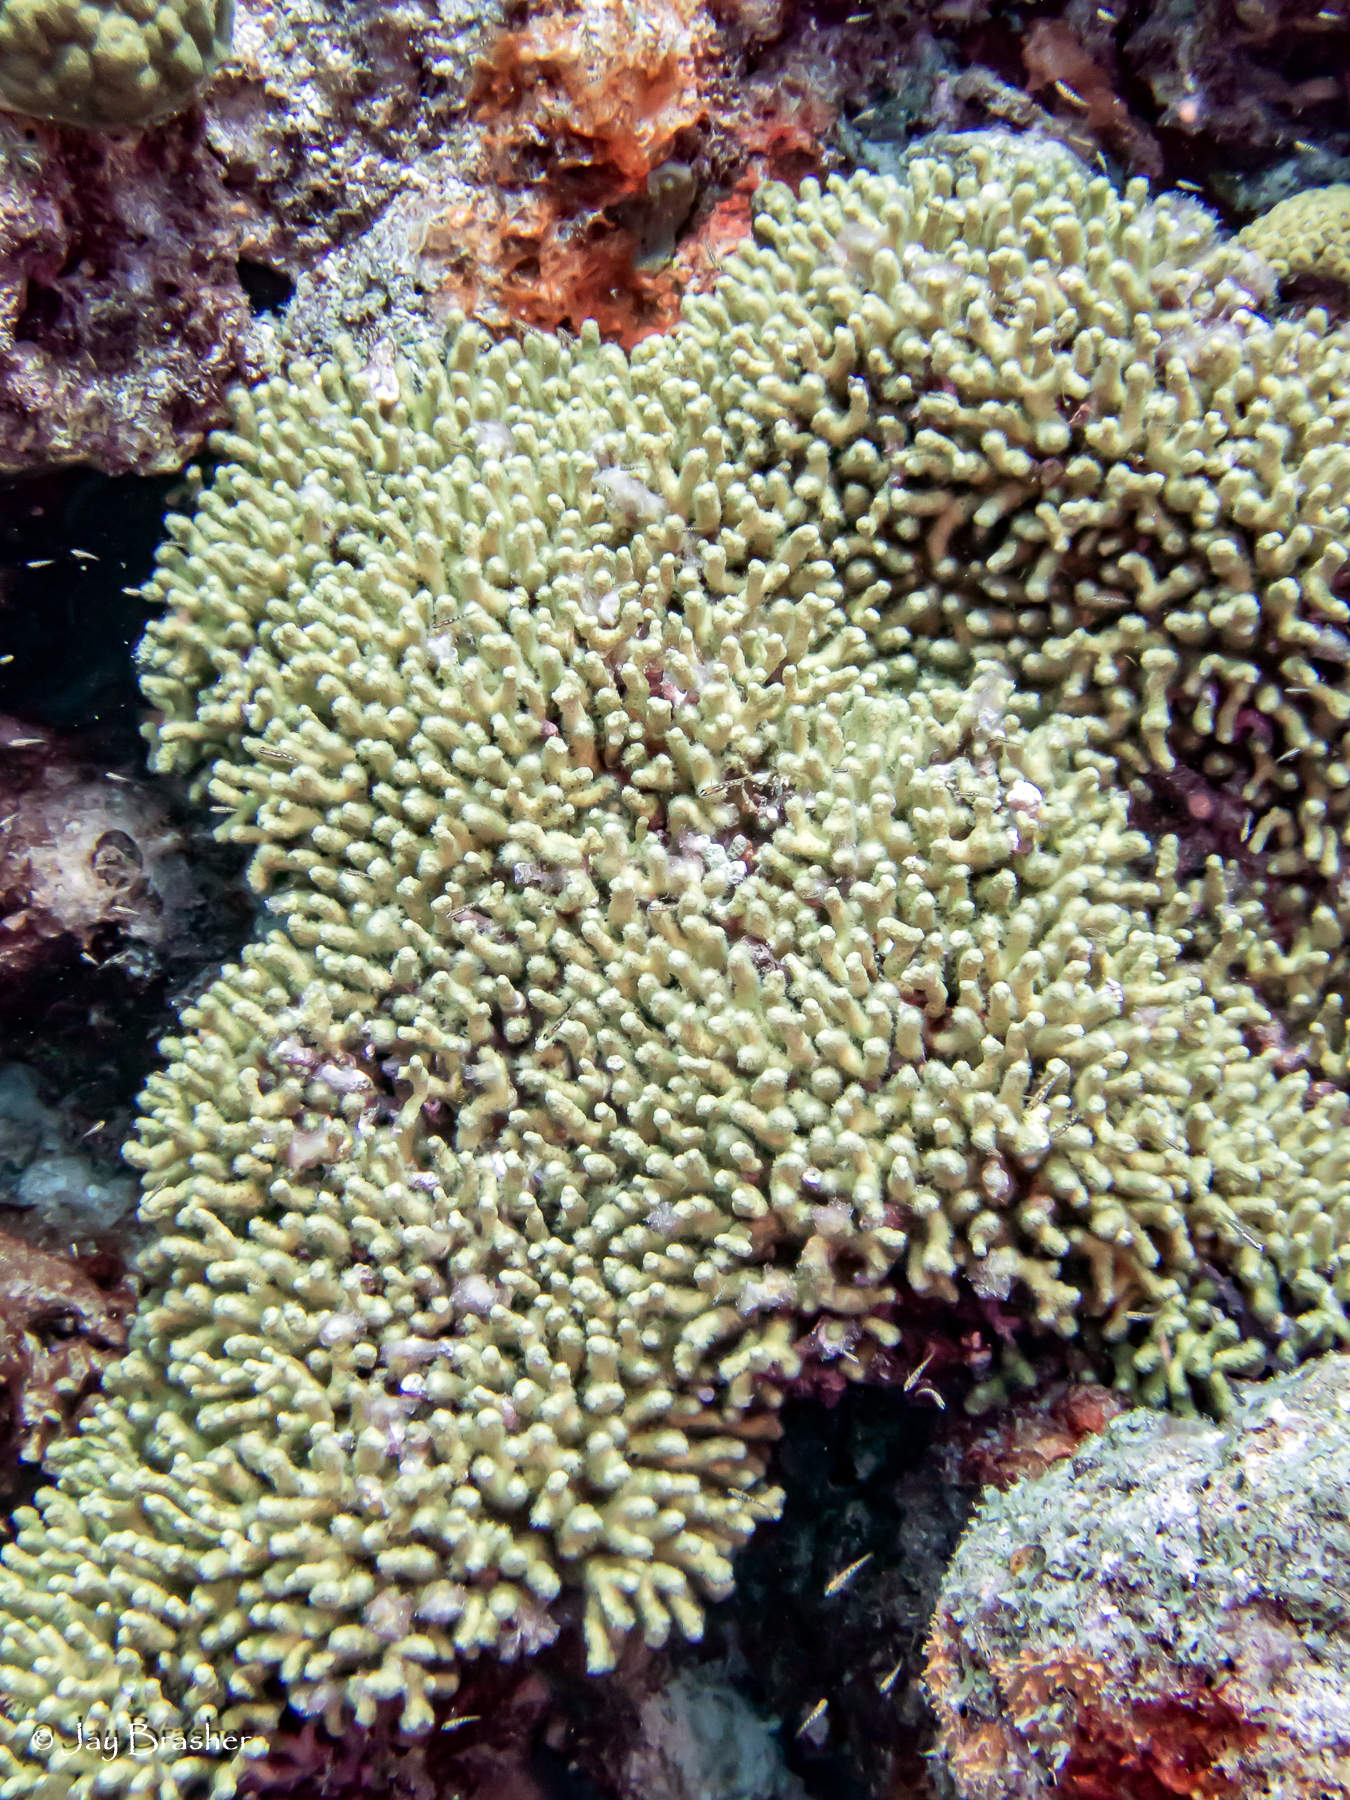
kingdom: Animalia
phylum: Cnidaria
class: Anthozoa
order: Scleractinia
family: Pocilloporidae
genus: Madracis
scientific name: Madracis auretenra
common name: Yellow pencil coral
